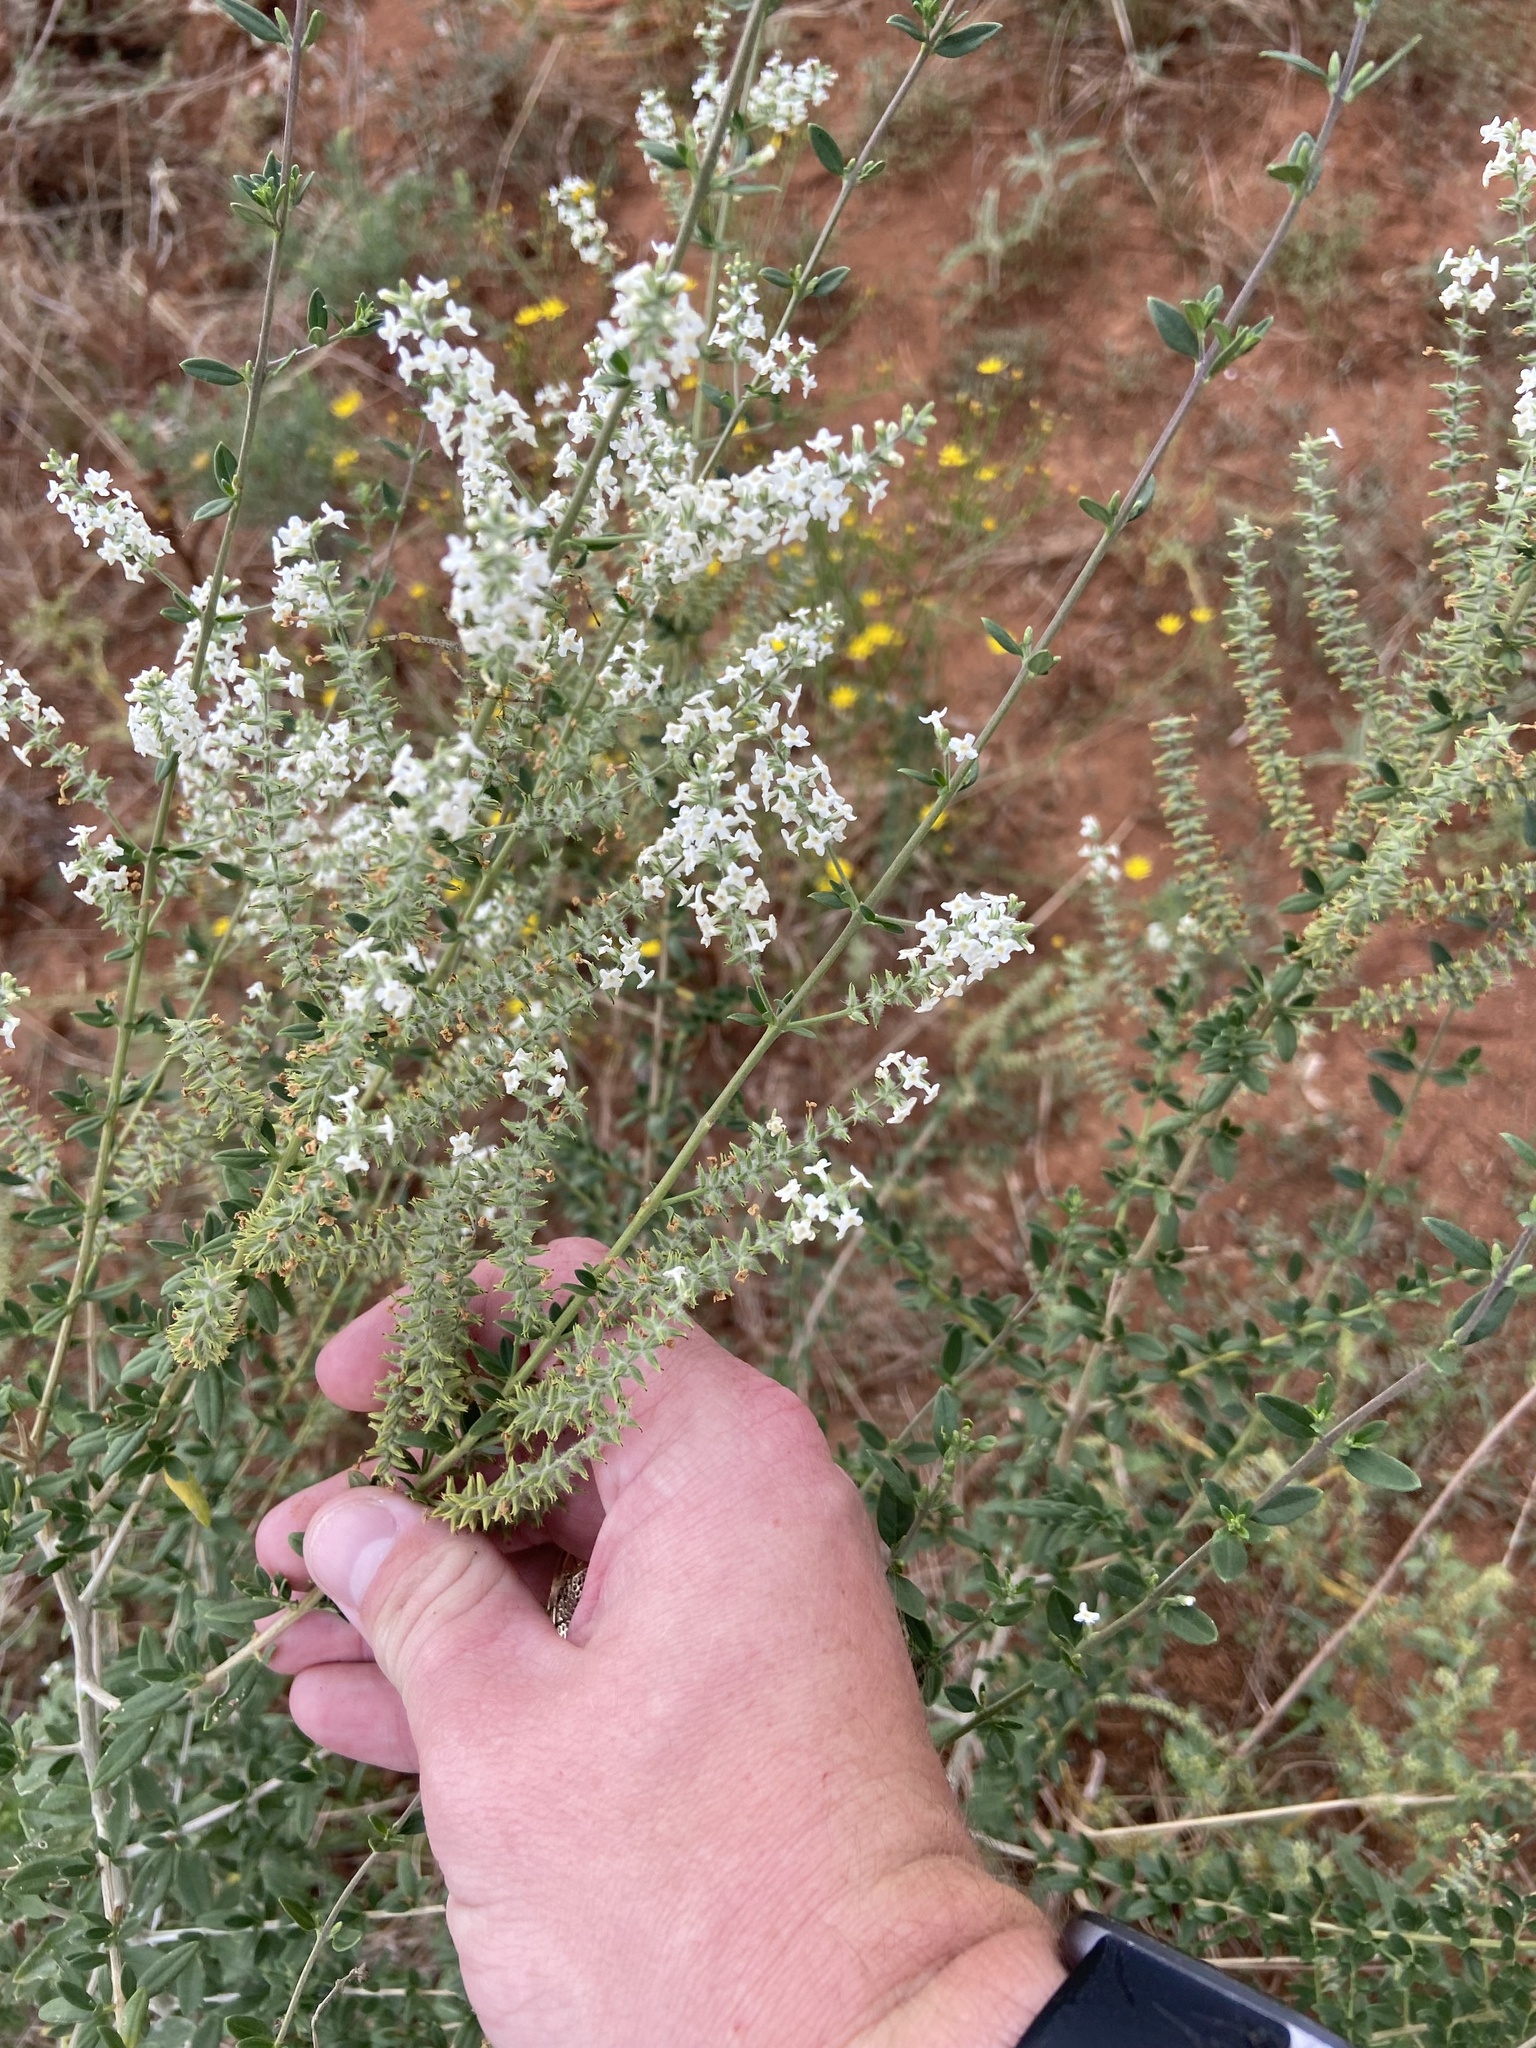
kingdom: Plantae
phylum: Tracheophyta
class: Magnoliopsida
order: Lamiales
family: Verbenaceae
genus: Aloysia
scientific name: Aloysia gratissima
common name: Common bee-brush
